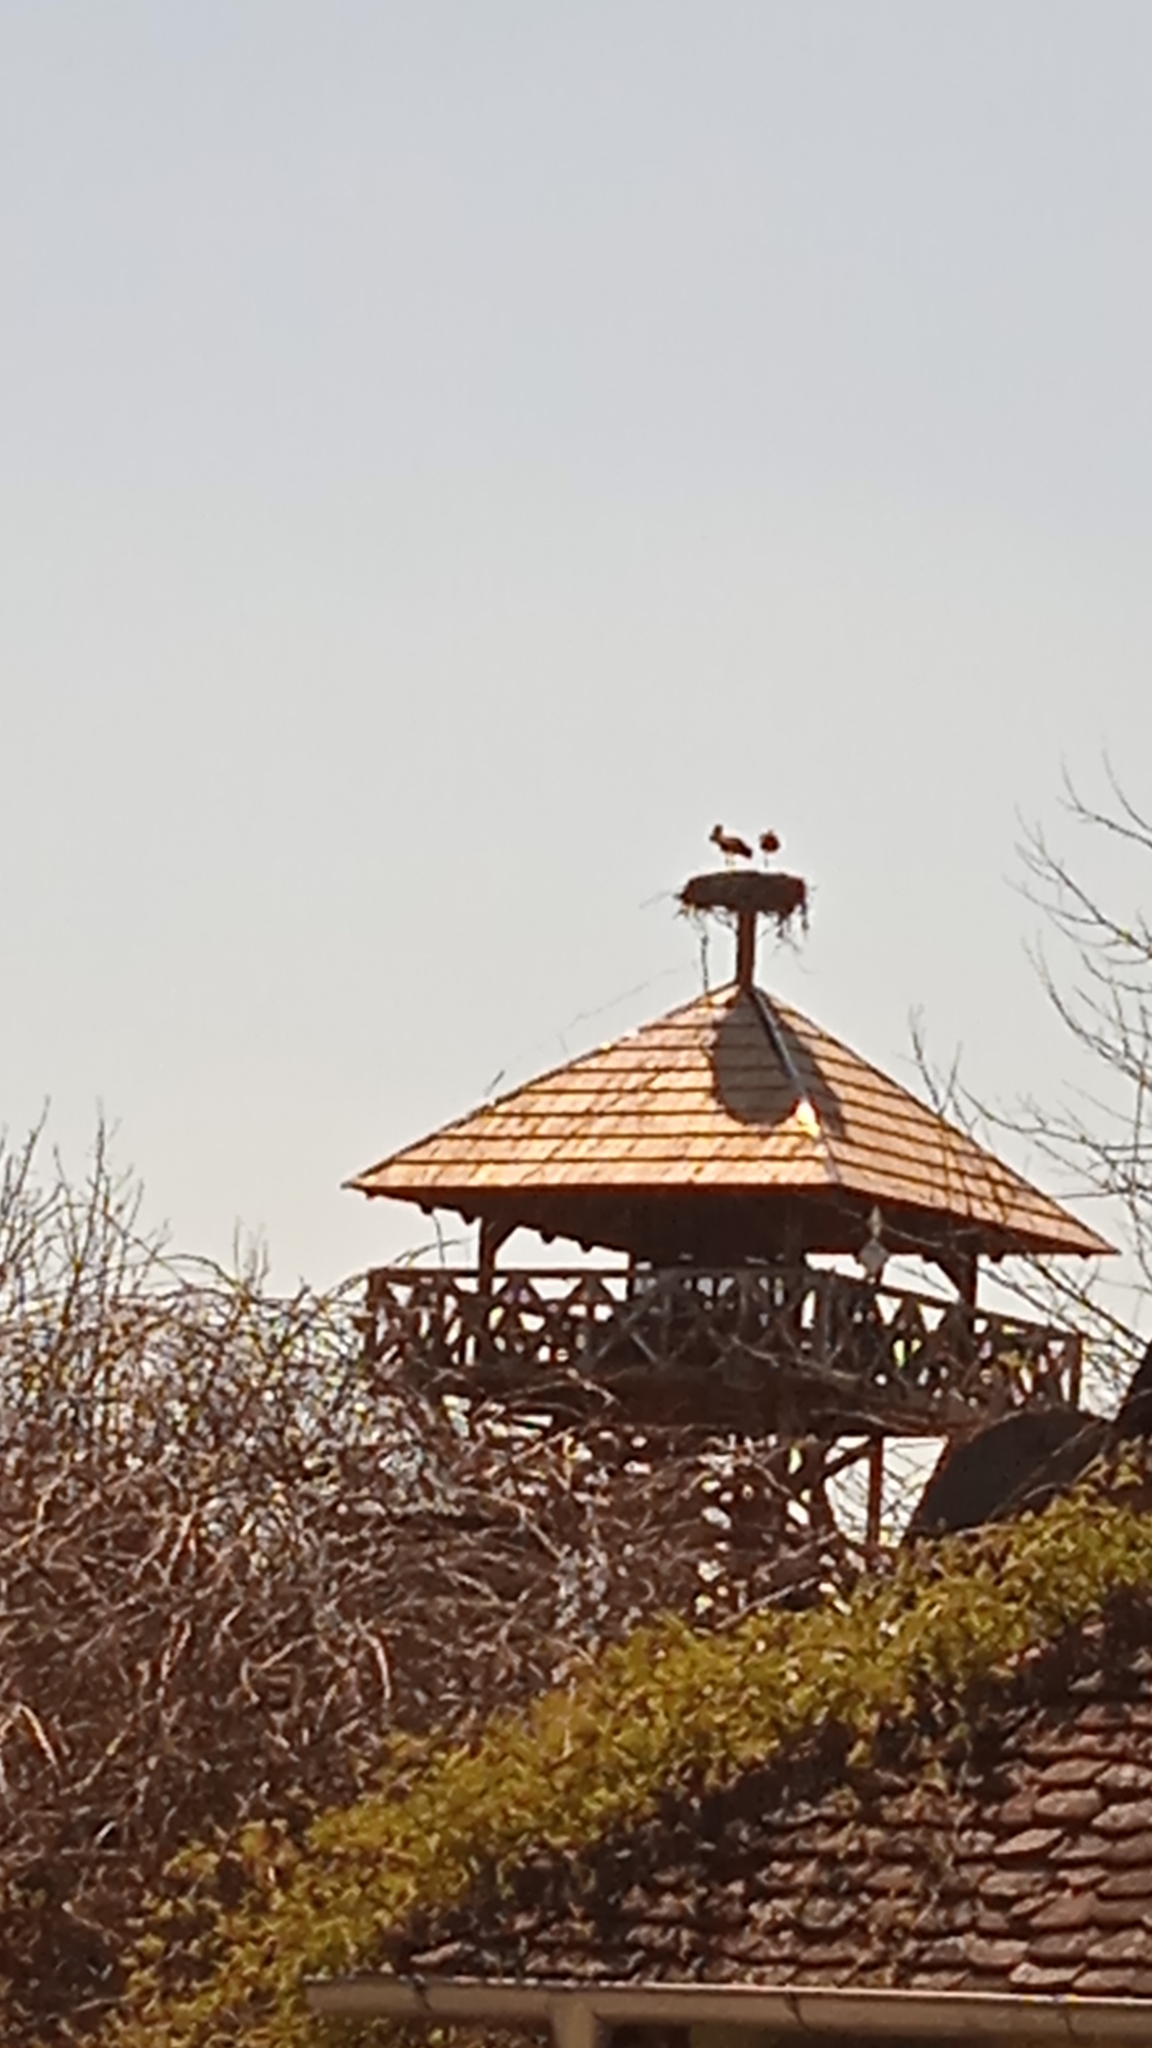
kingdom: Animalia
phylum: Chordata
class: Aves
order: Ciconiiformes
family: Ciconiidae
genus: Ciconia
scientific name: Ciconia ciconia
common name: White stork
